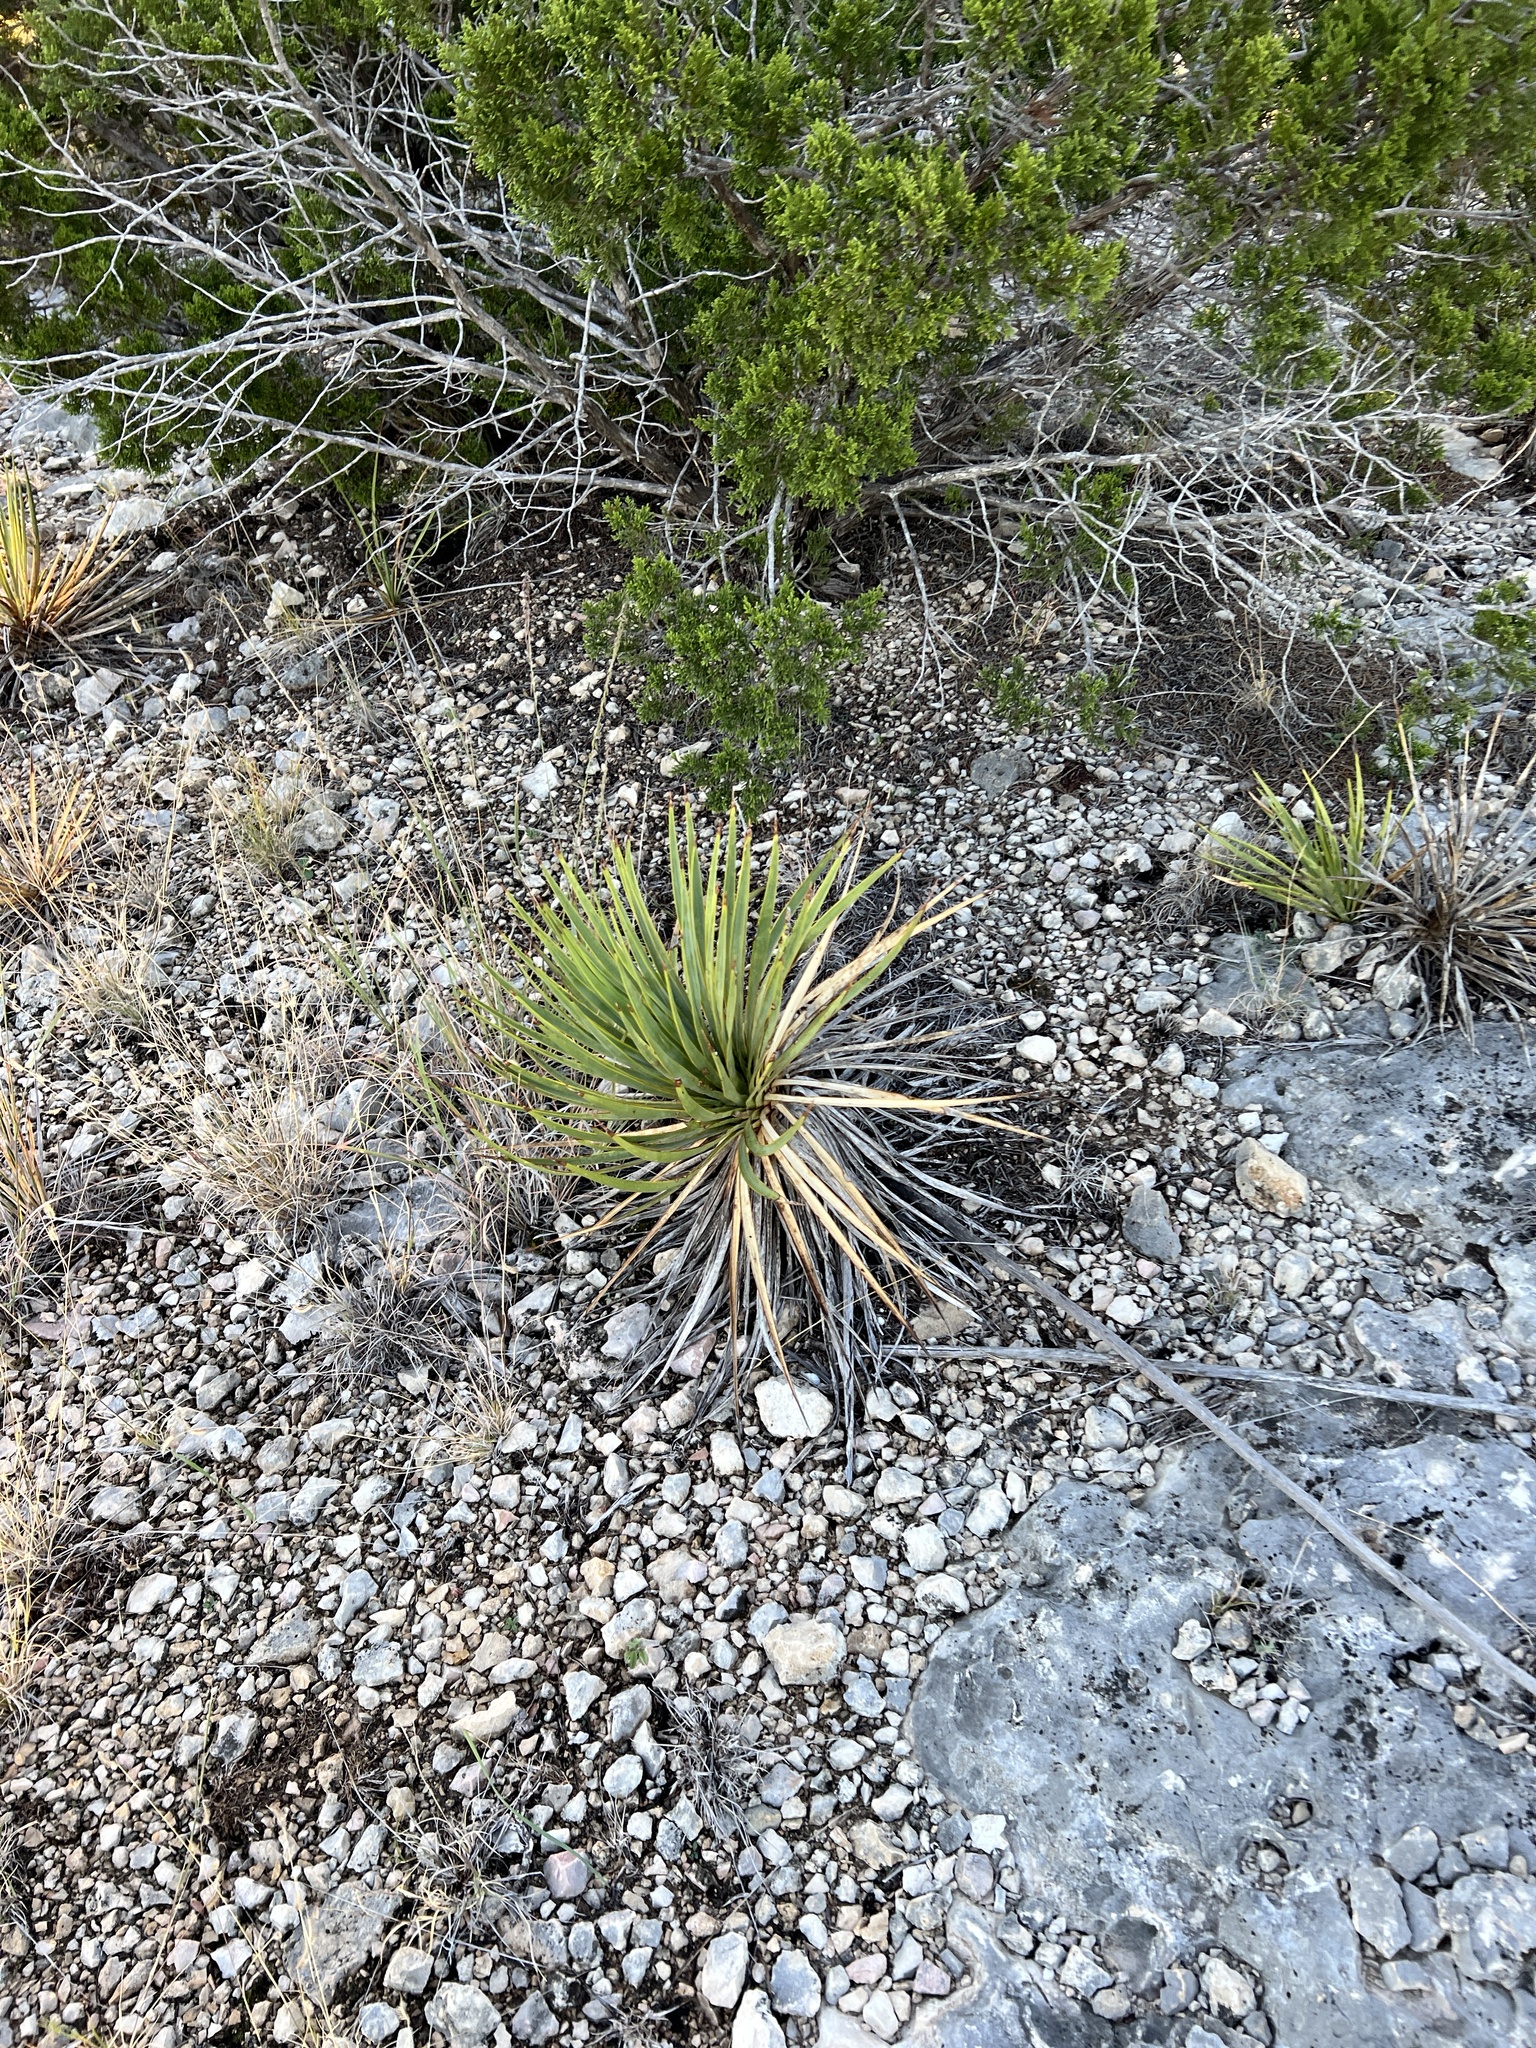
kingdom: Plantae
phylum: Tracheophyta
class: Liliopsida
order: Asparagales
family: Asparagaceae
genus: Yucca
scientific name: Yucca reverchonii
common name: San angelo yucca
